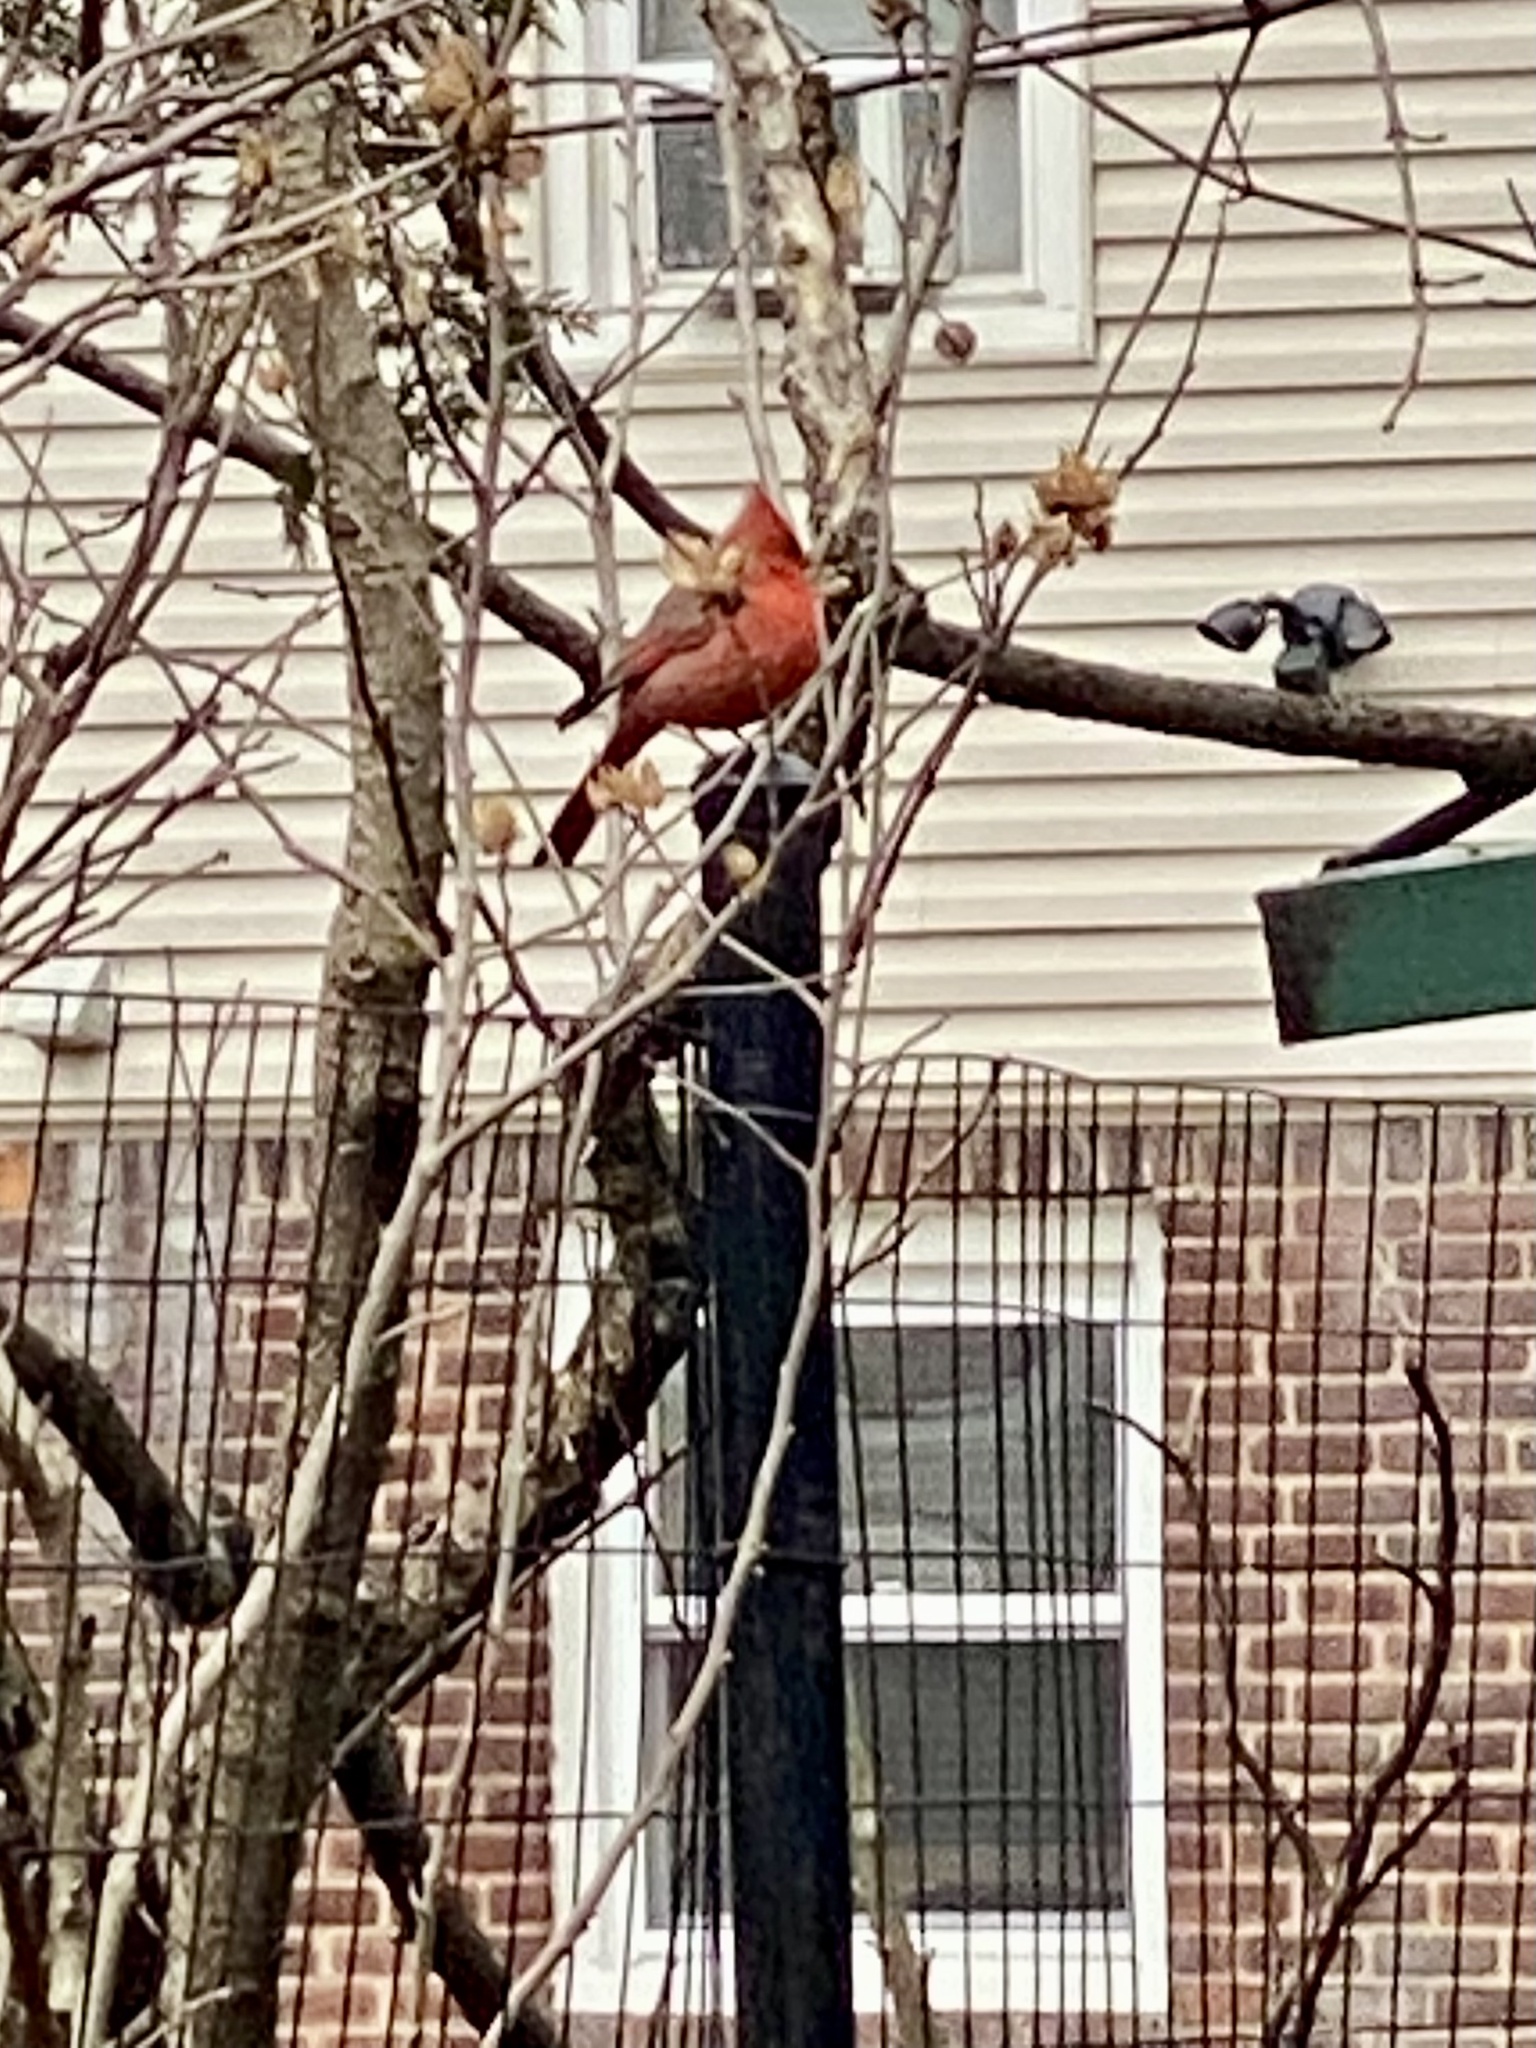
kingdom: Animalia
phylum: Chordata
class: Aves
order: Passeriformes
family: Cardinalidae
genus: Cardinalis
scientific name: Cardinalis cardinalis
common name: Northern cardinal
